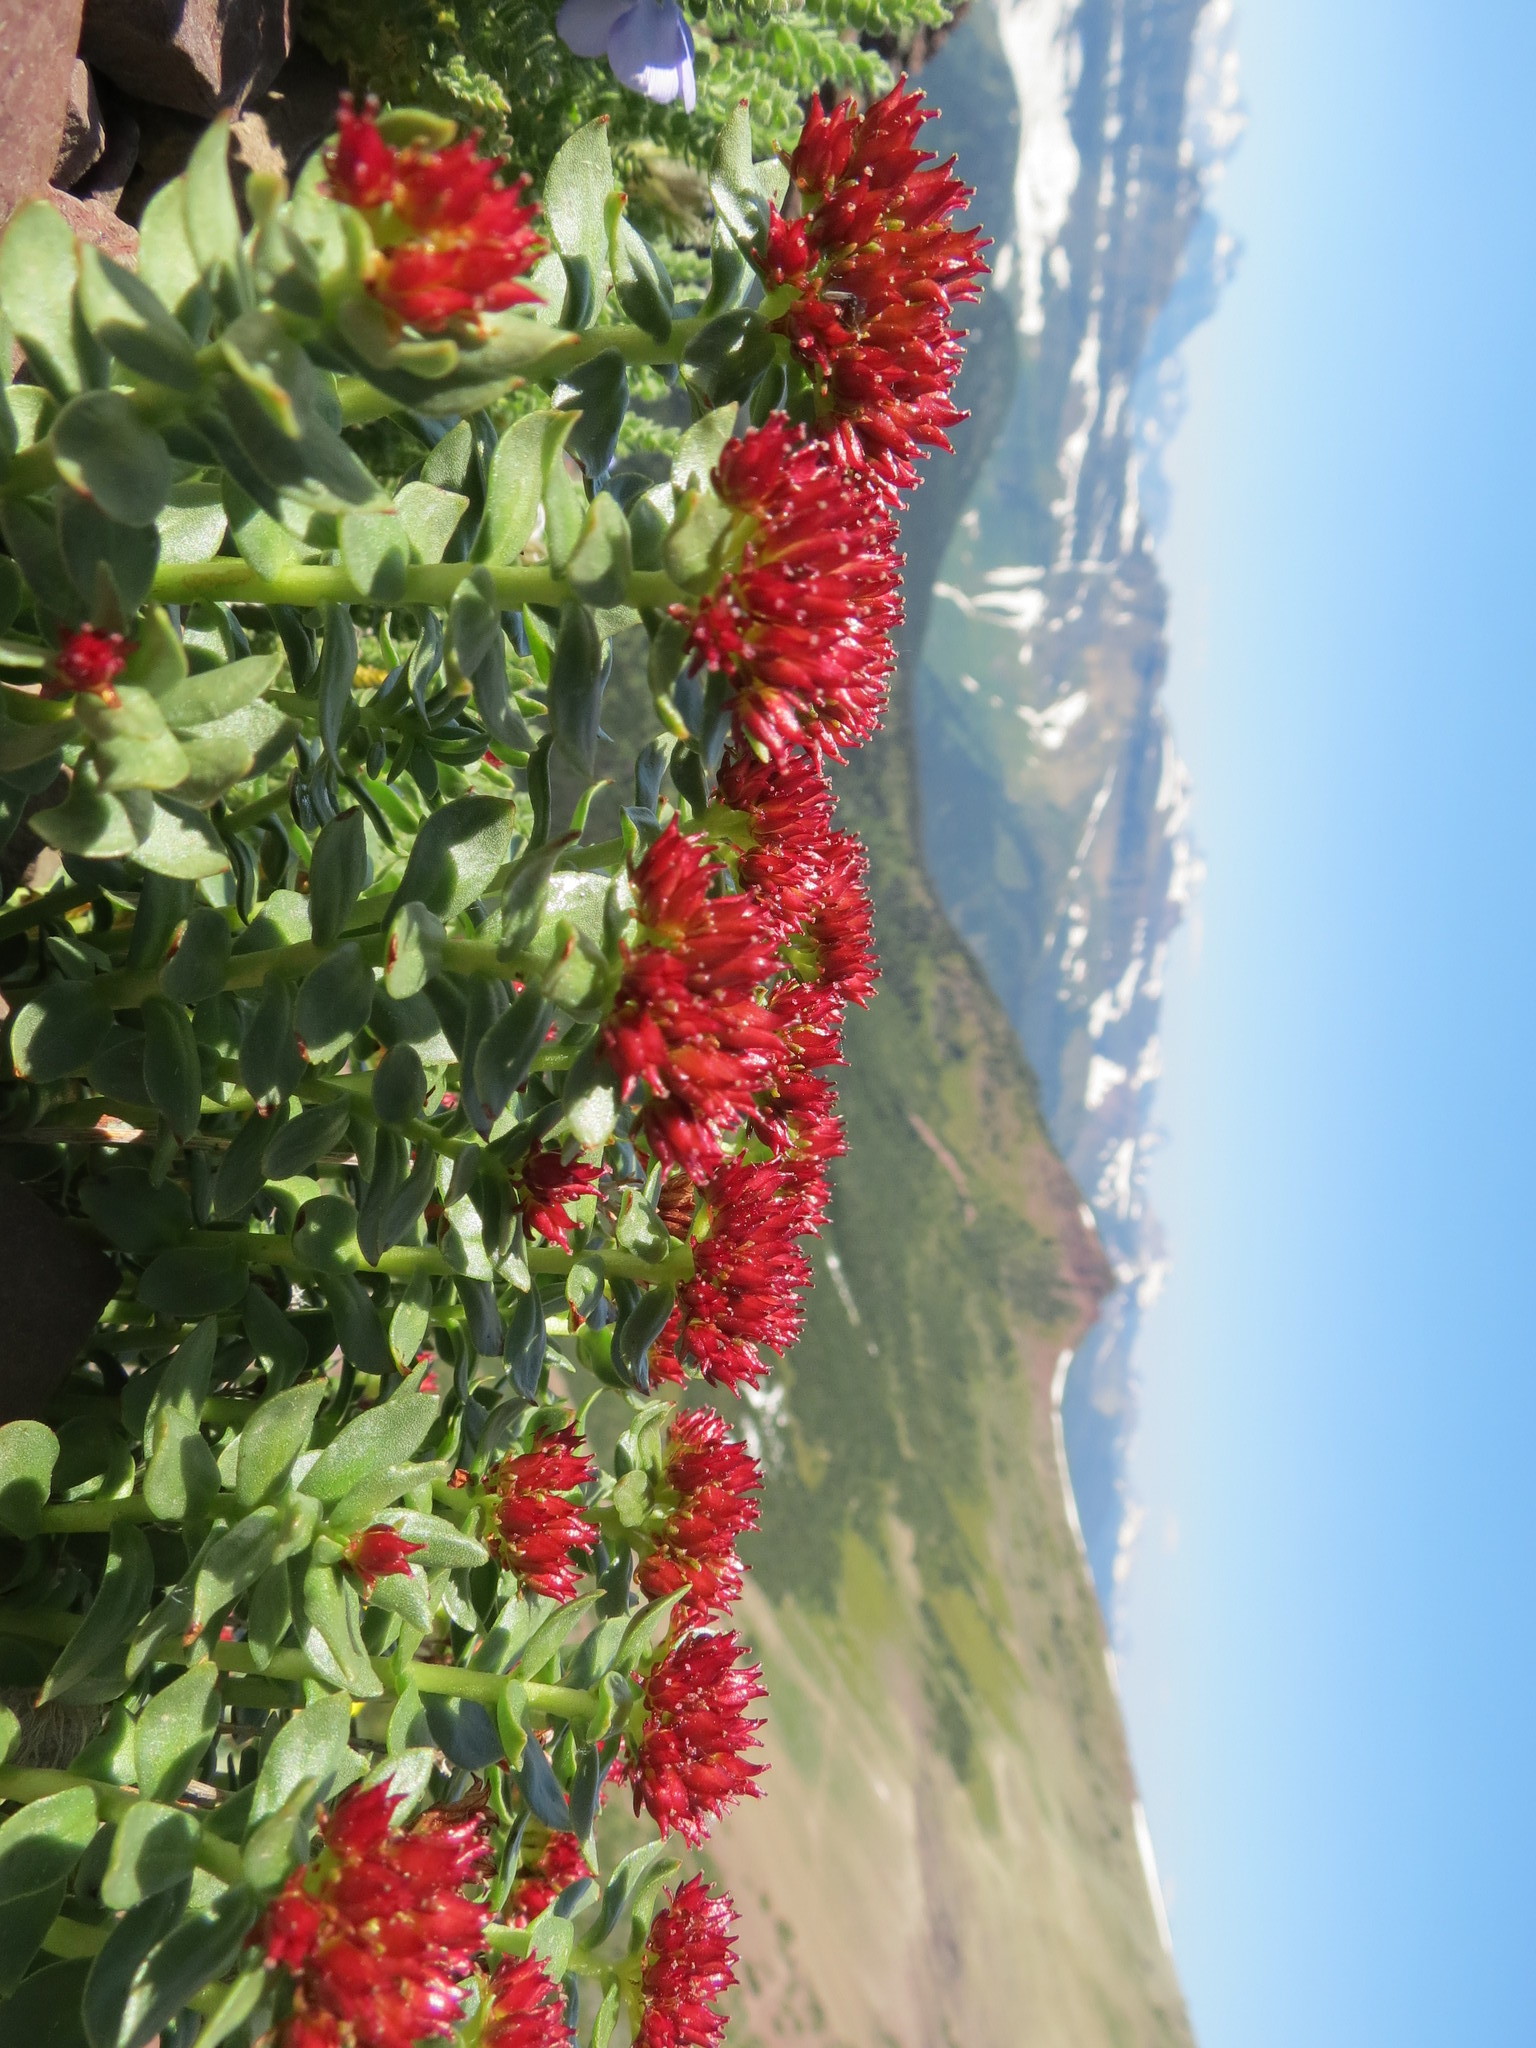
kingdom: Plantae
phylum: Tracheophyta
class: Magnoliopsida
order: Saxifragales
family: Crassulaceae
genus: Rhodiola
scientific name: Rhodiola integrifolia
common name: Western roseroot
